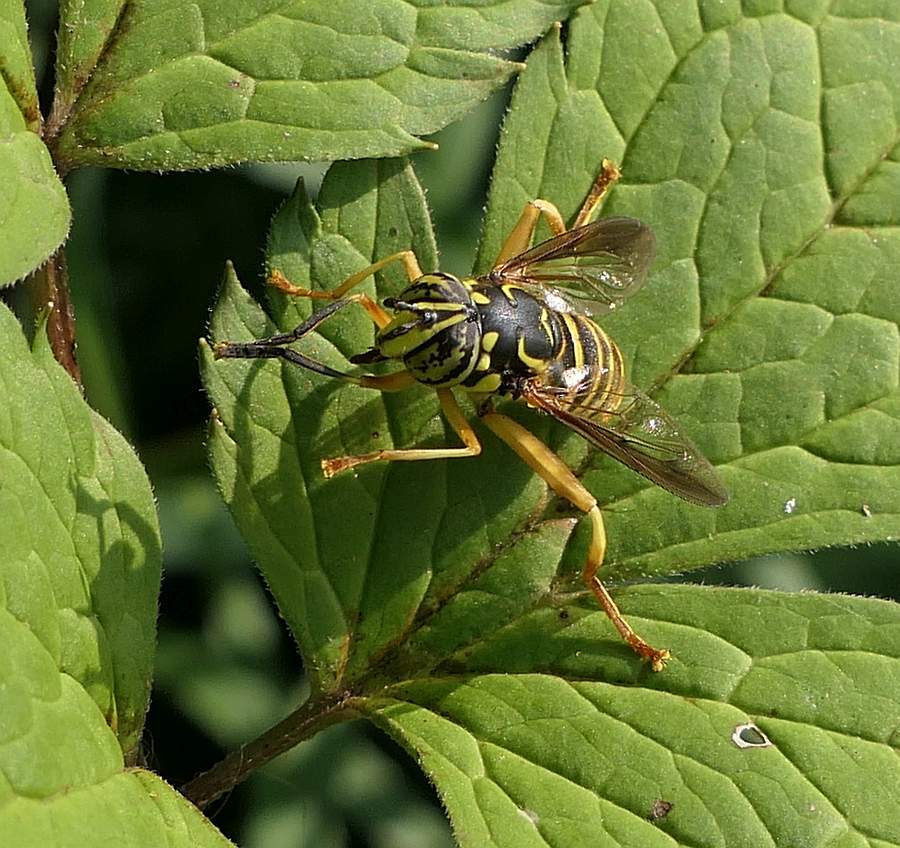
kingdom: Animalia
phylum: Arthropoda
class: Insecta
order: Diptera
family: Syrphidae
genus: Spilomyia
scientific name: Spilomyia longicornis
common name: Eastern hornet fly
